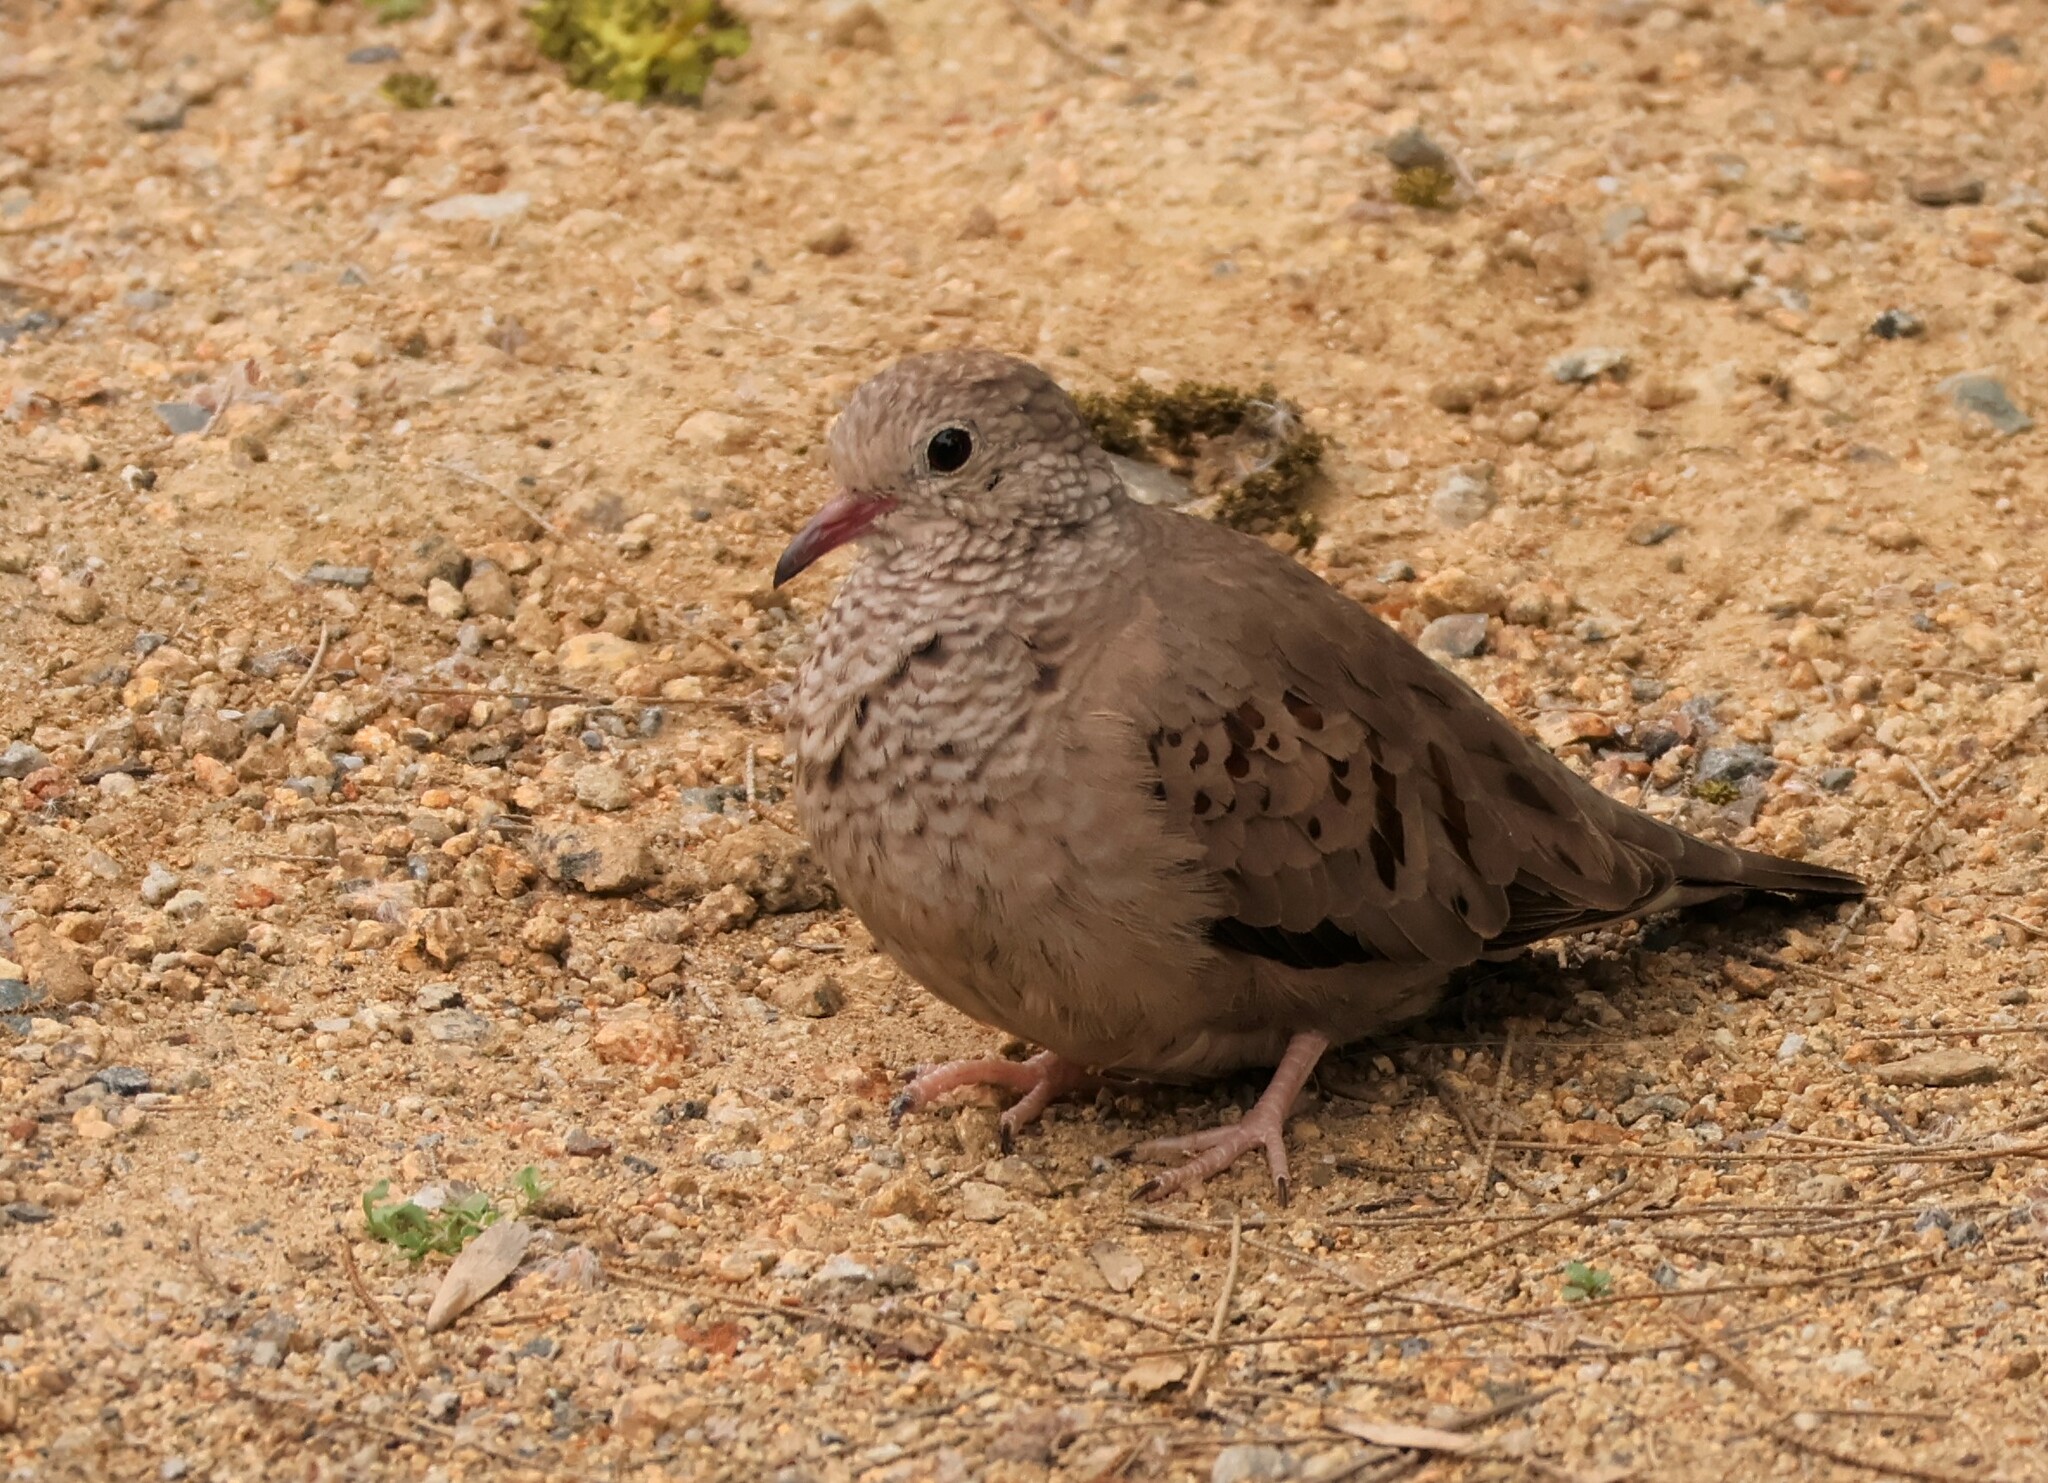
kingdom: Animalia
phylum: Chordata
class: Aves
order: Columbiformes
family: Columbidae
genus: Columbina
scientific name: Columbina passerina
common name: Common ground-dove
